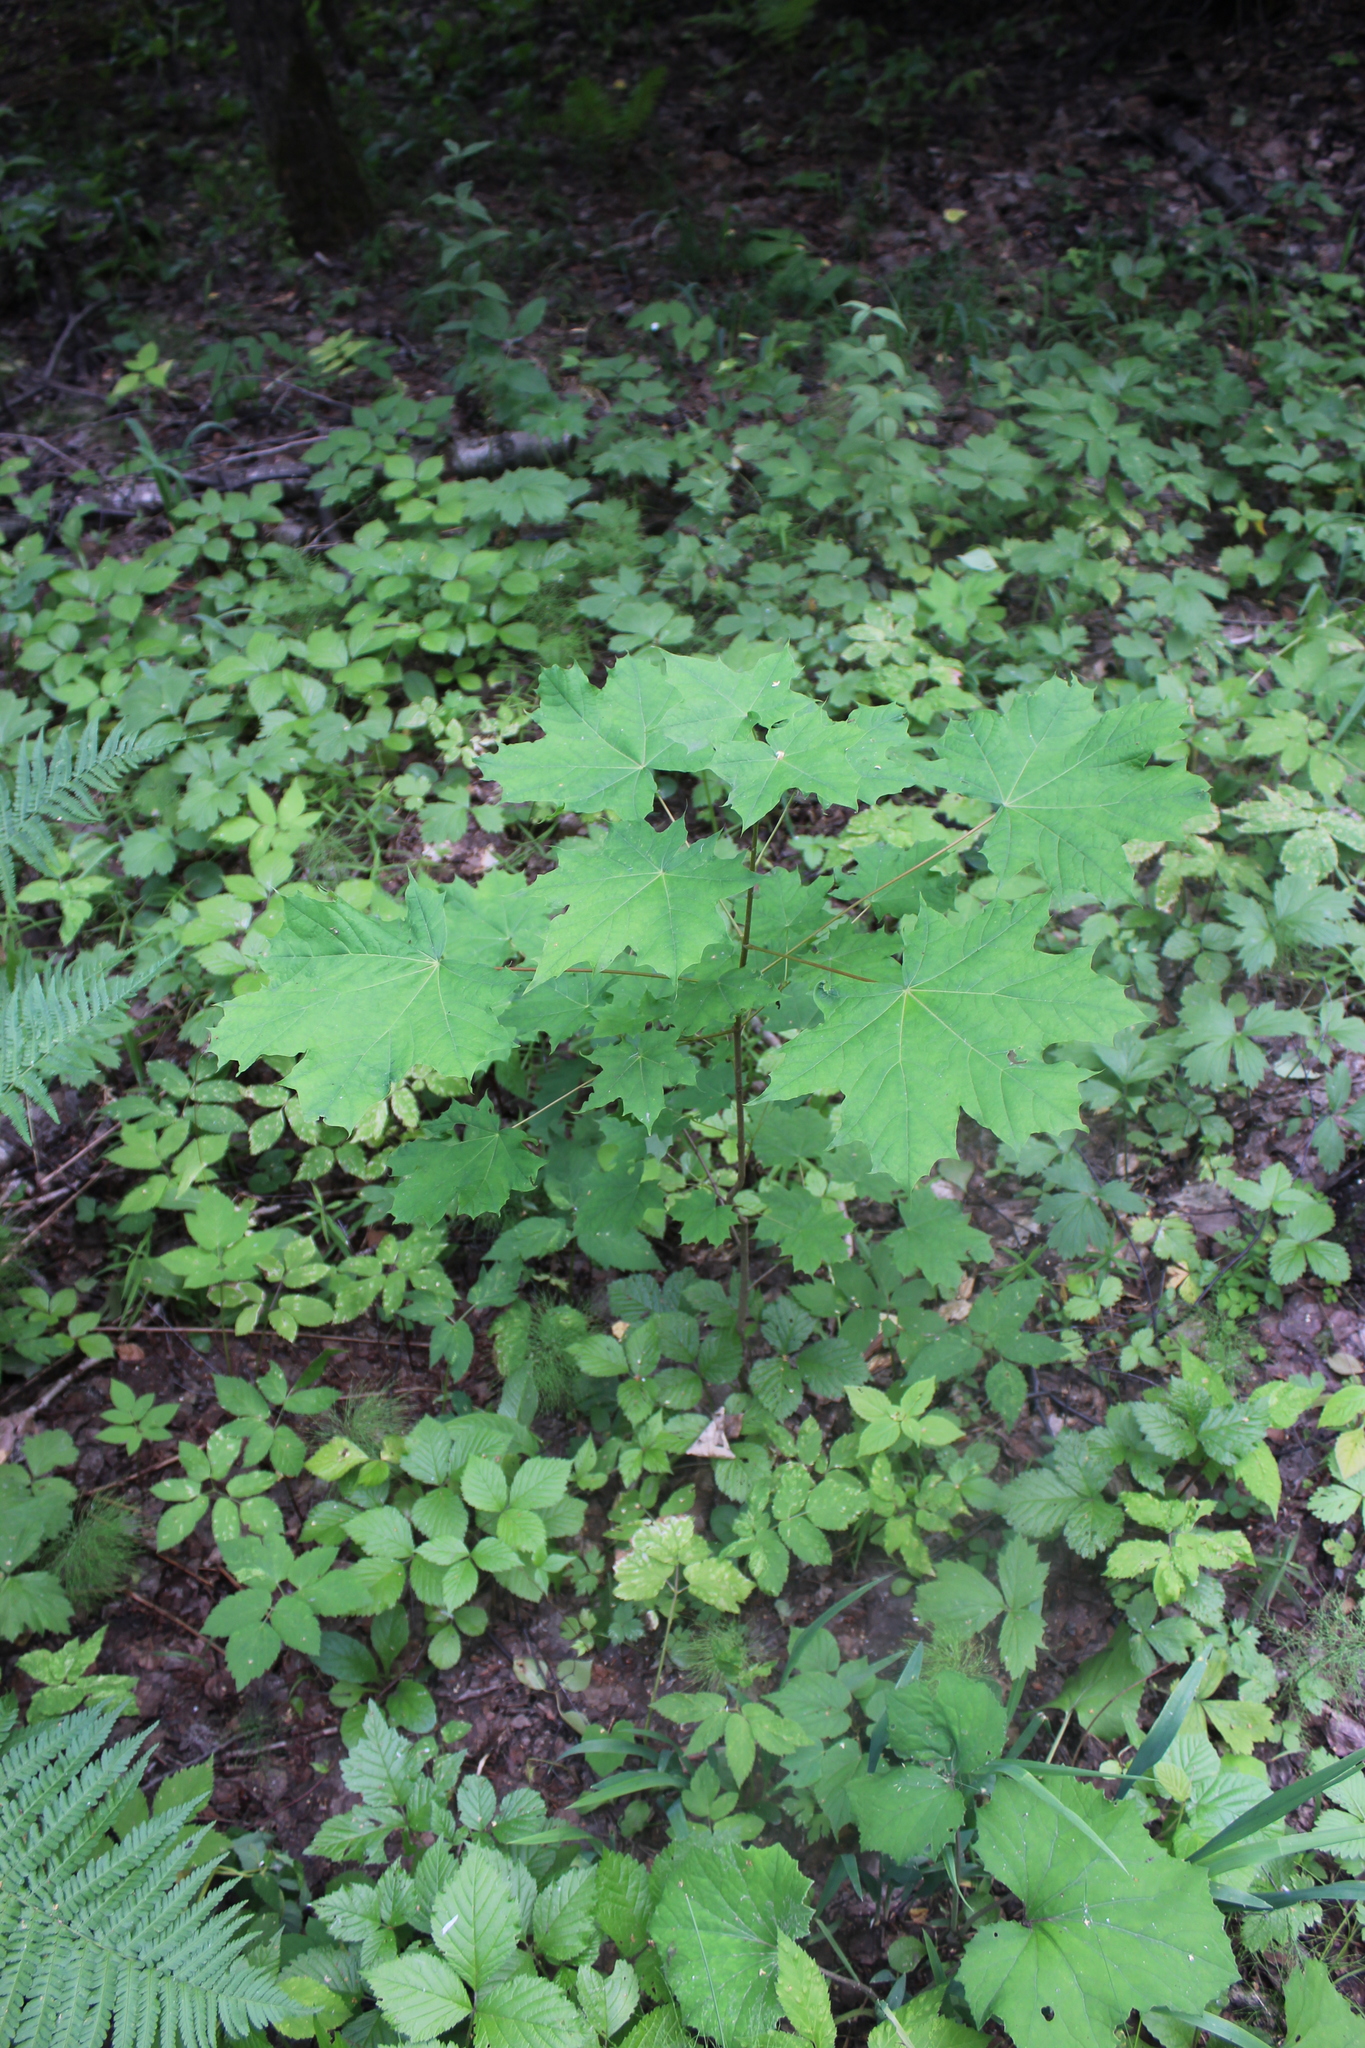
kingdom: Plantae
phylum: Tracheophyta
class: Magnoliopsida
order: Sapindales
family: Sapindaceae
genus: Acer
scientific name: Acer platanoides
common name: Norway maple
